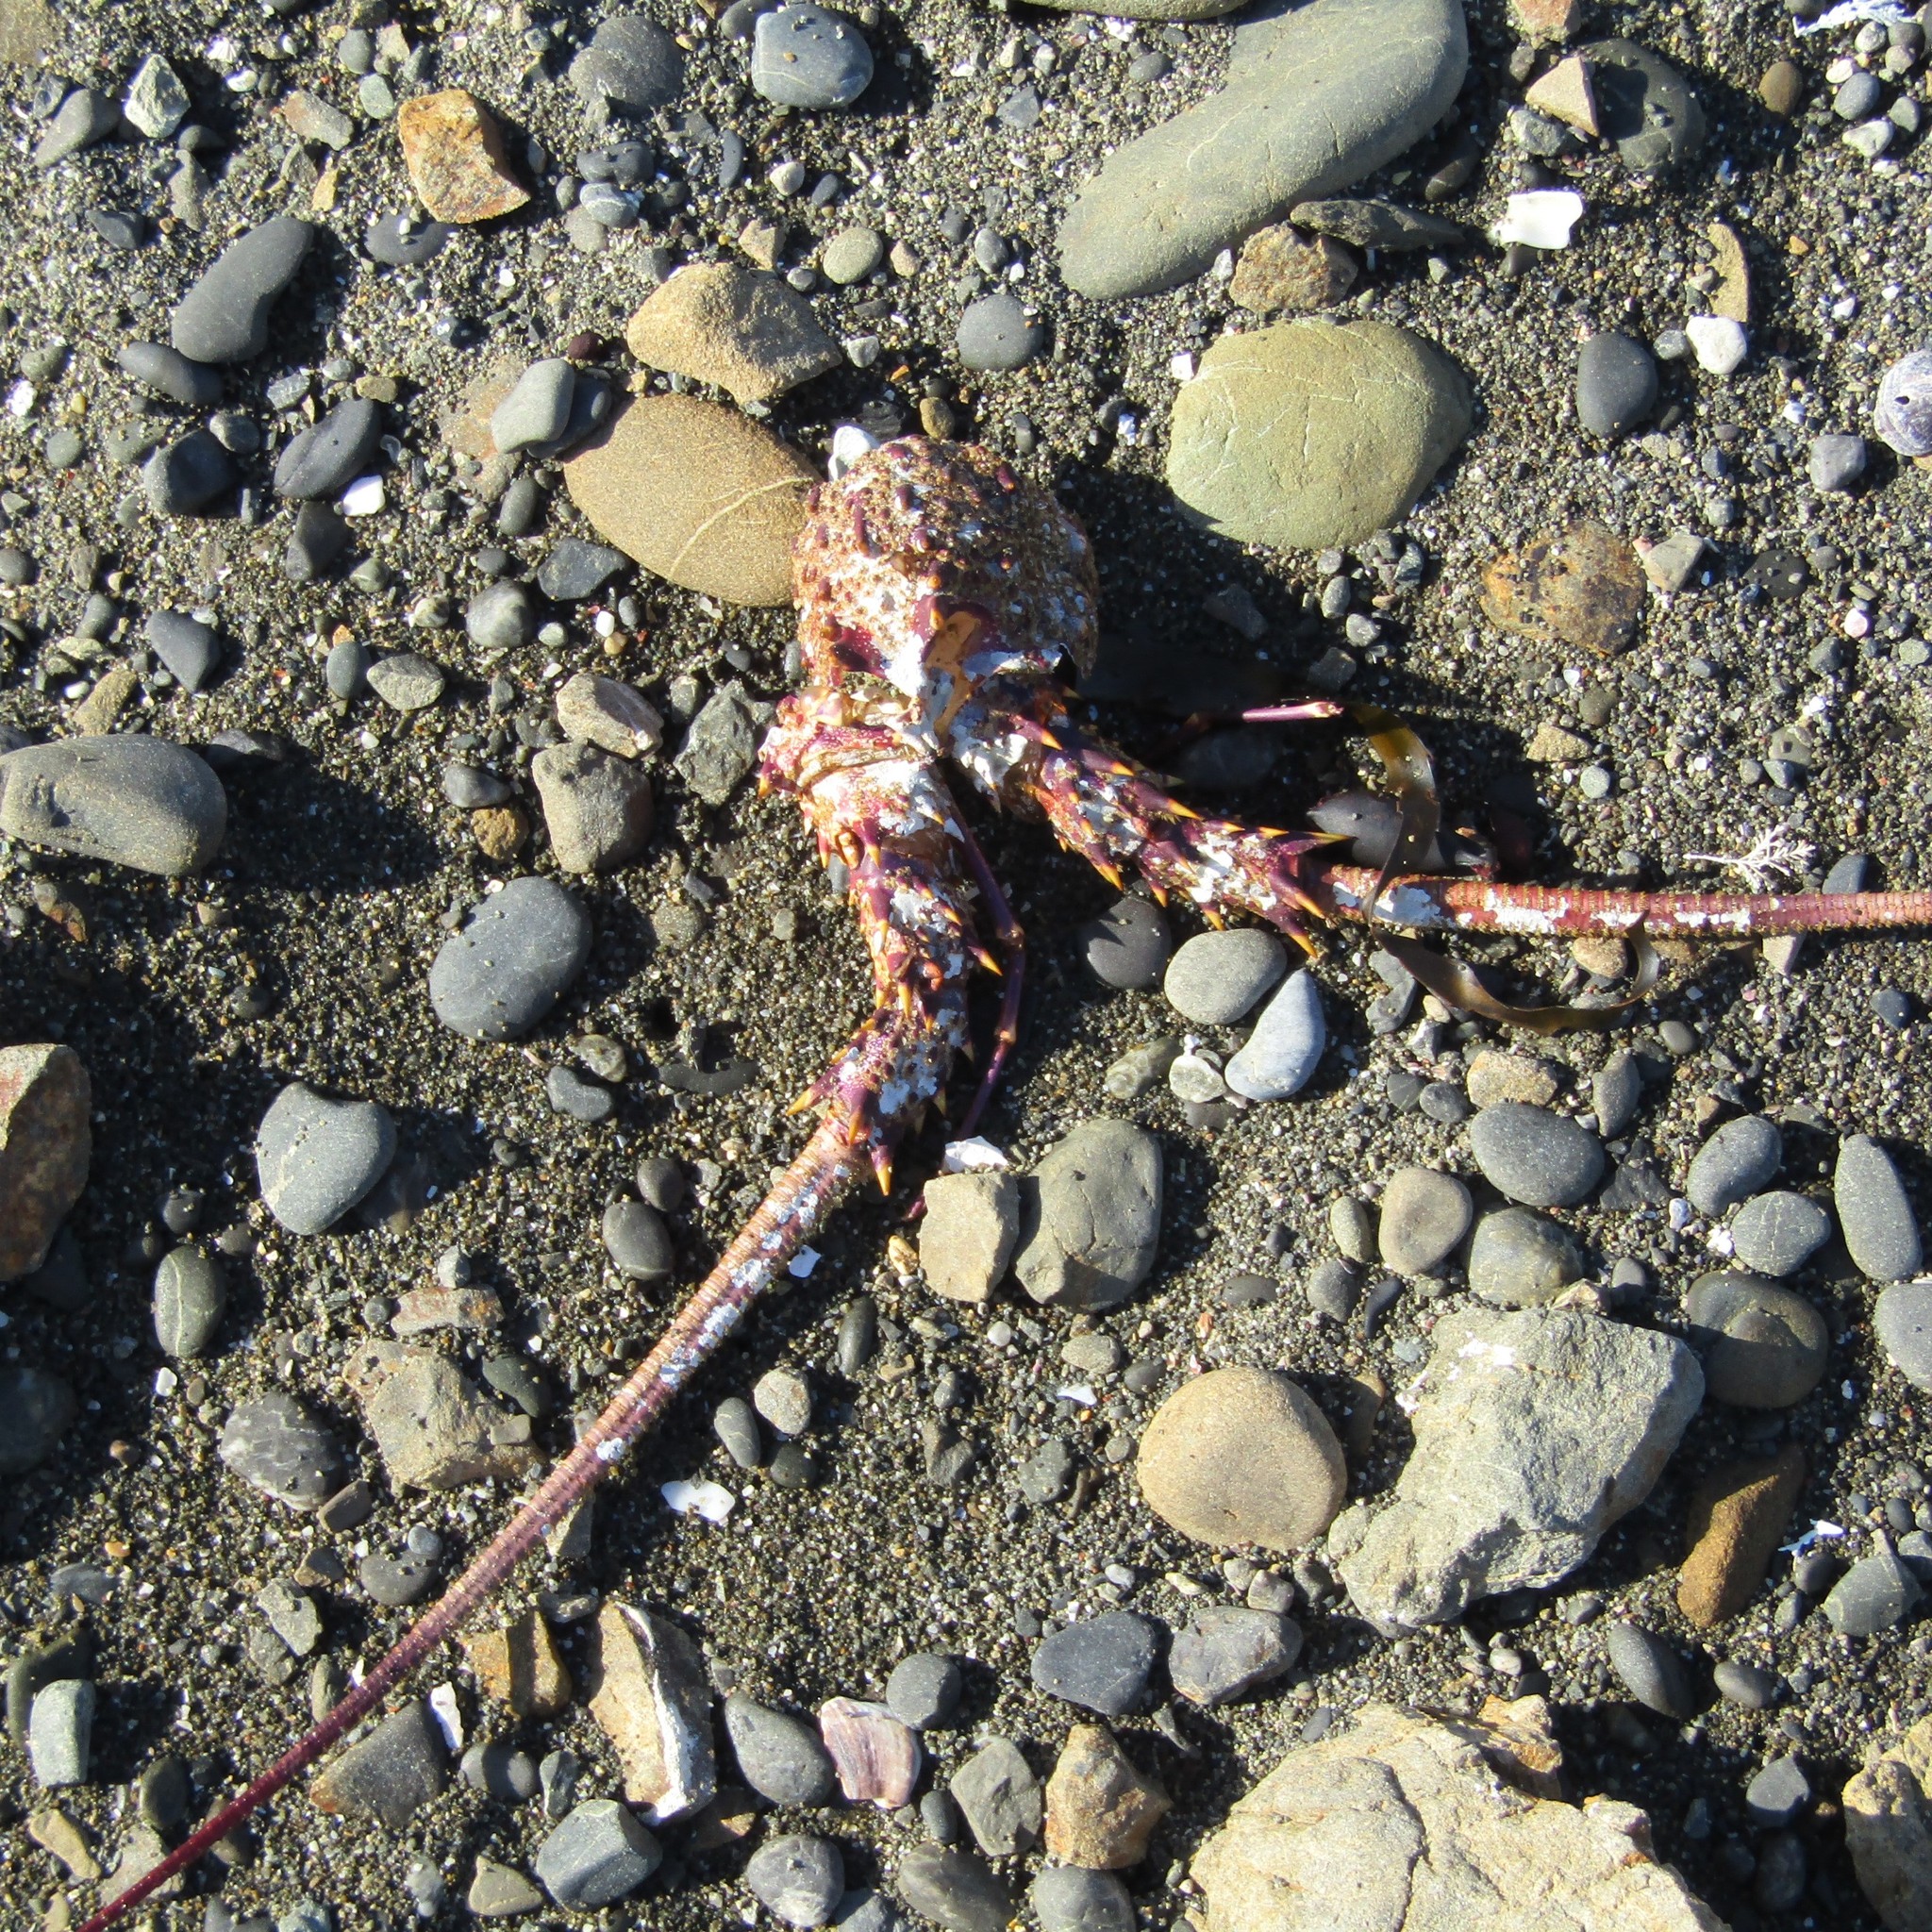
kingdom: Animalia
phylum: Arthropoda
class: Malacostraca
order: Decapoda
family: Palinuridae
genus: Jasus
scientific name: Jasus edwardsii
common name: Red rock lobster
